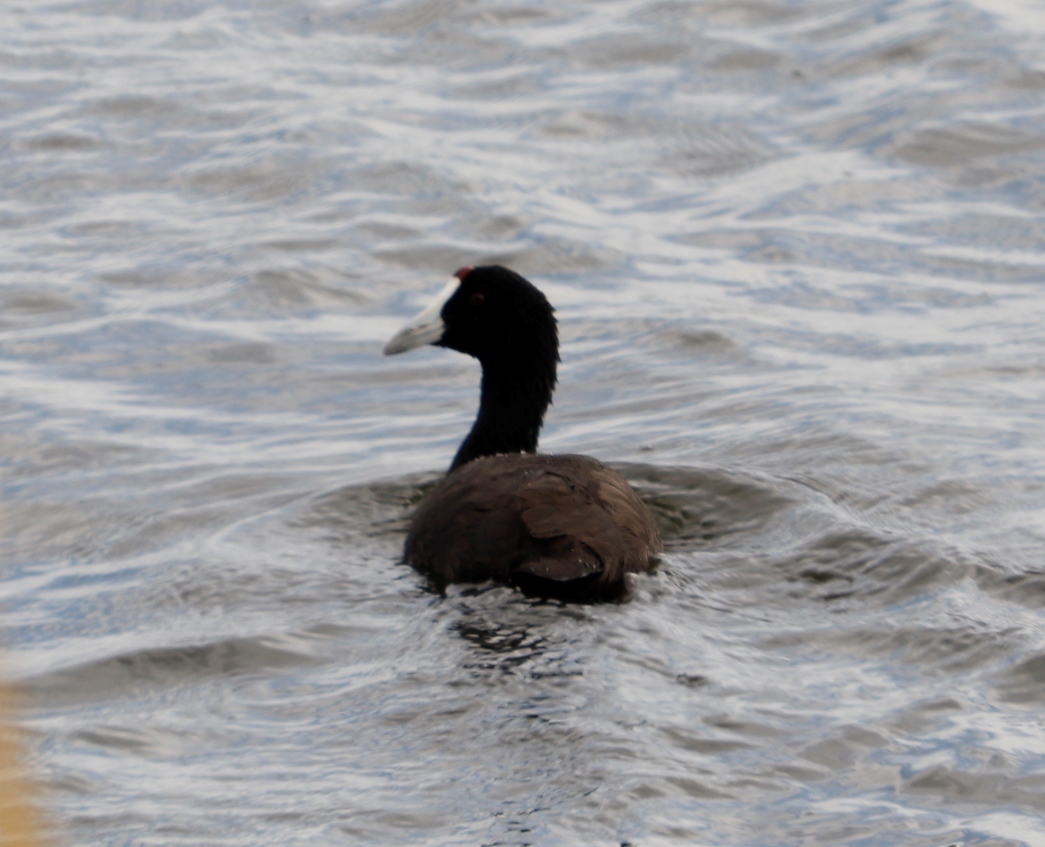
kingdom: Animalia
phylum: Chordata
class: Aves
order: Gruiformes
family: Rallidae
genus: Fulica
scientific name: Fulica cristata
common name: Red-knobbed coot
